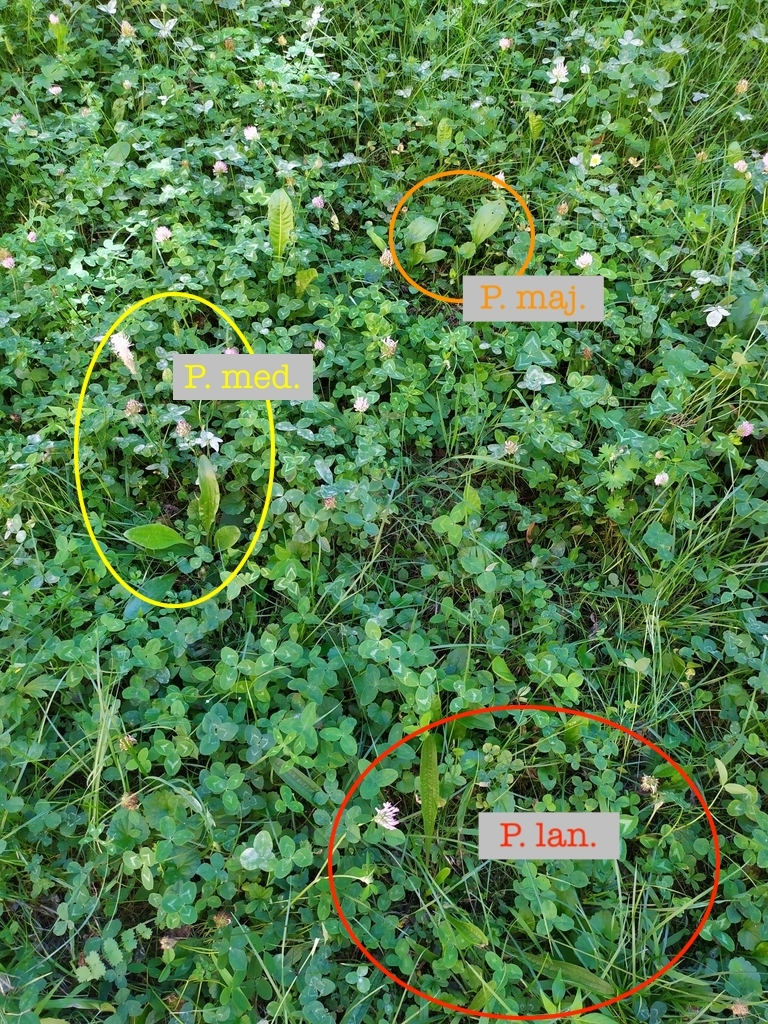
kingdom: Plantae
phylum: Tracheophyta
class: Magnoliopsida
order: Lamiales
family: Plantaginaceae
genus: Plantago
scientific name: Plantago media
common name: Hoary plantain
